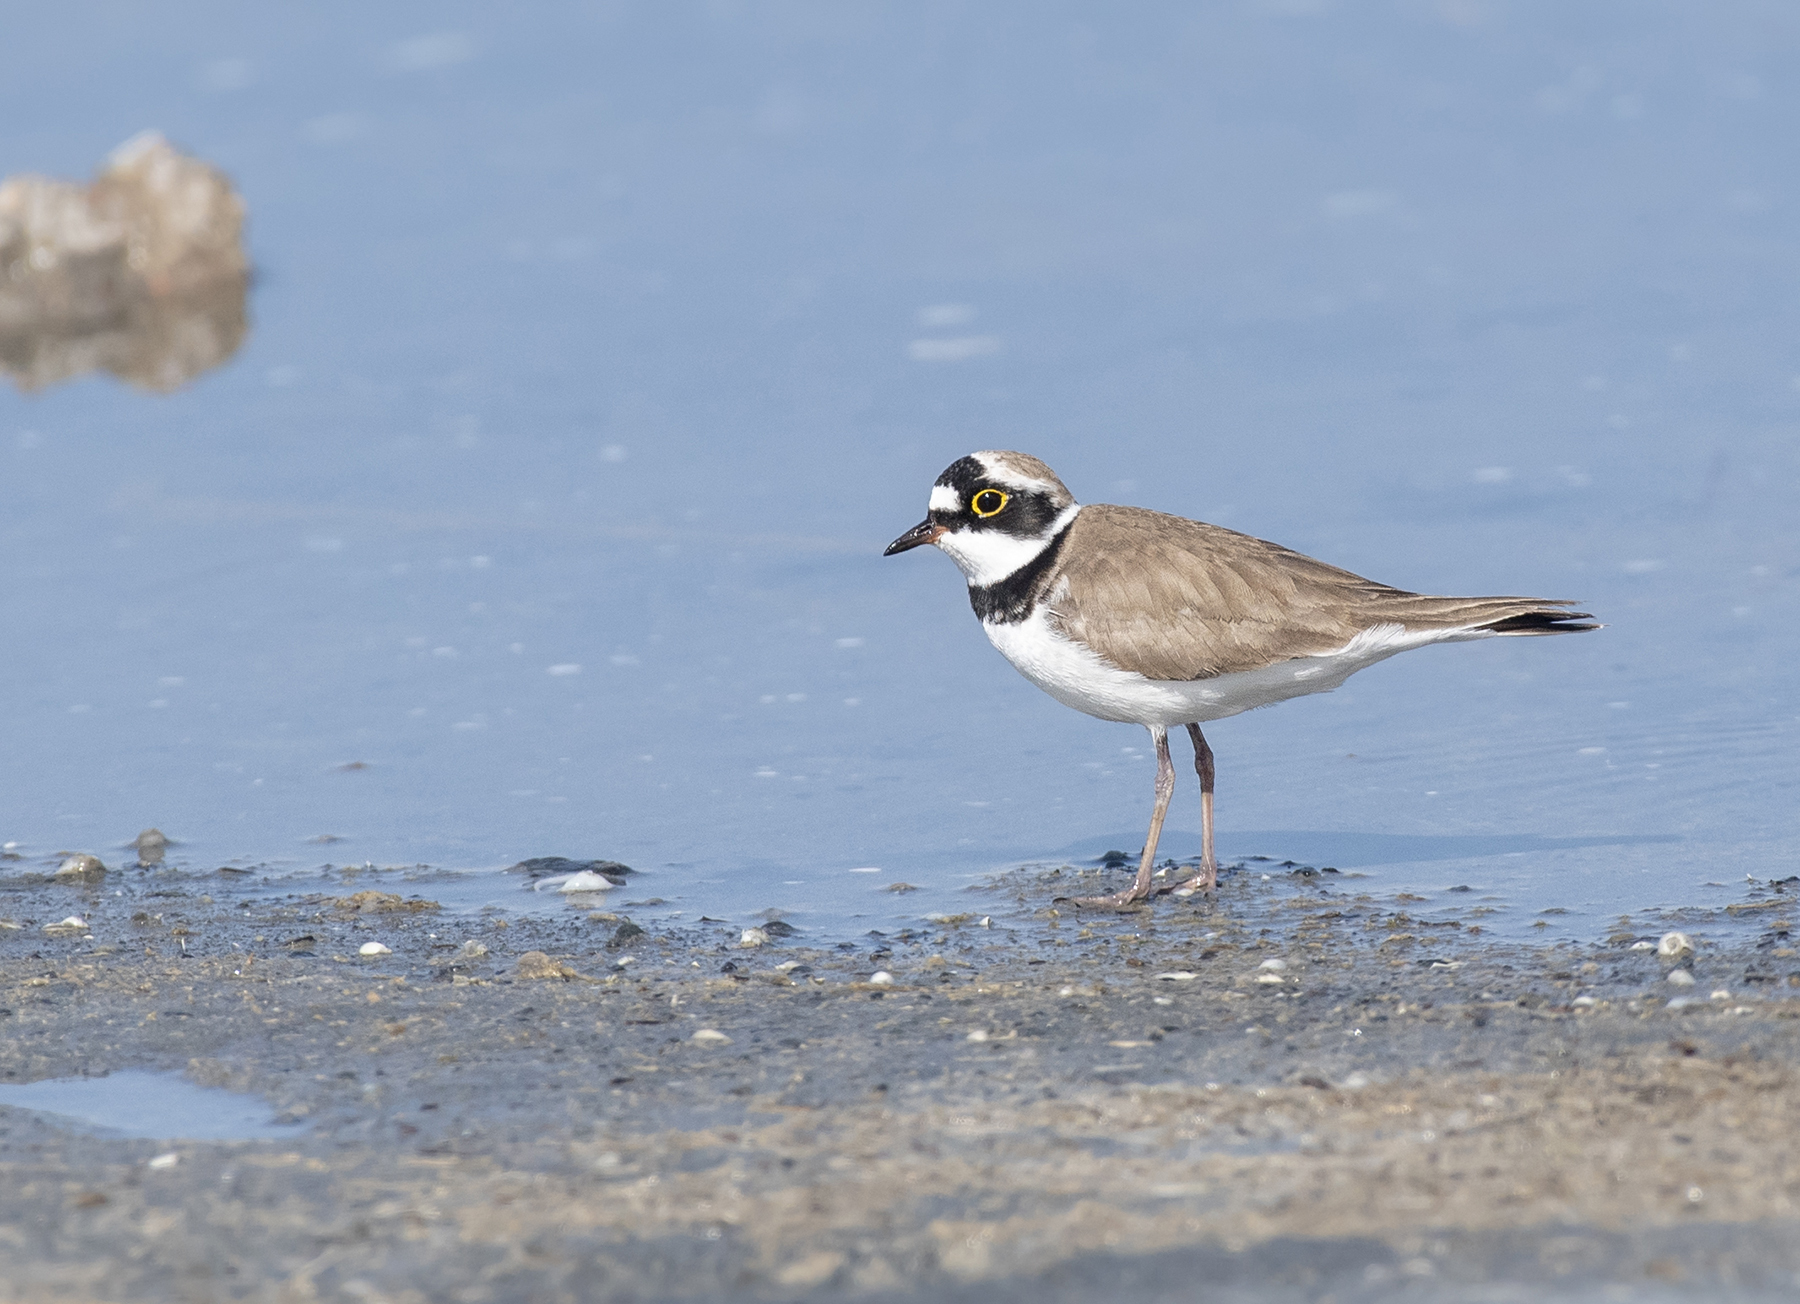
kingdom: Animalia
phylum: Chordata
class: Aves
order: Charadriiformes
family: Charadriidae
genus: Charadrius
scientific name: Charadrius dubius
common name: Little ringed plover
